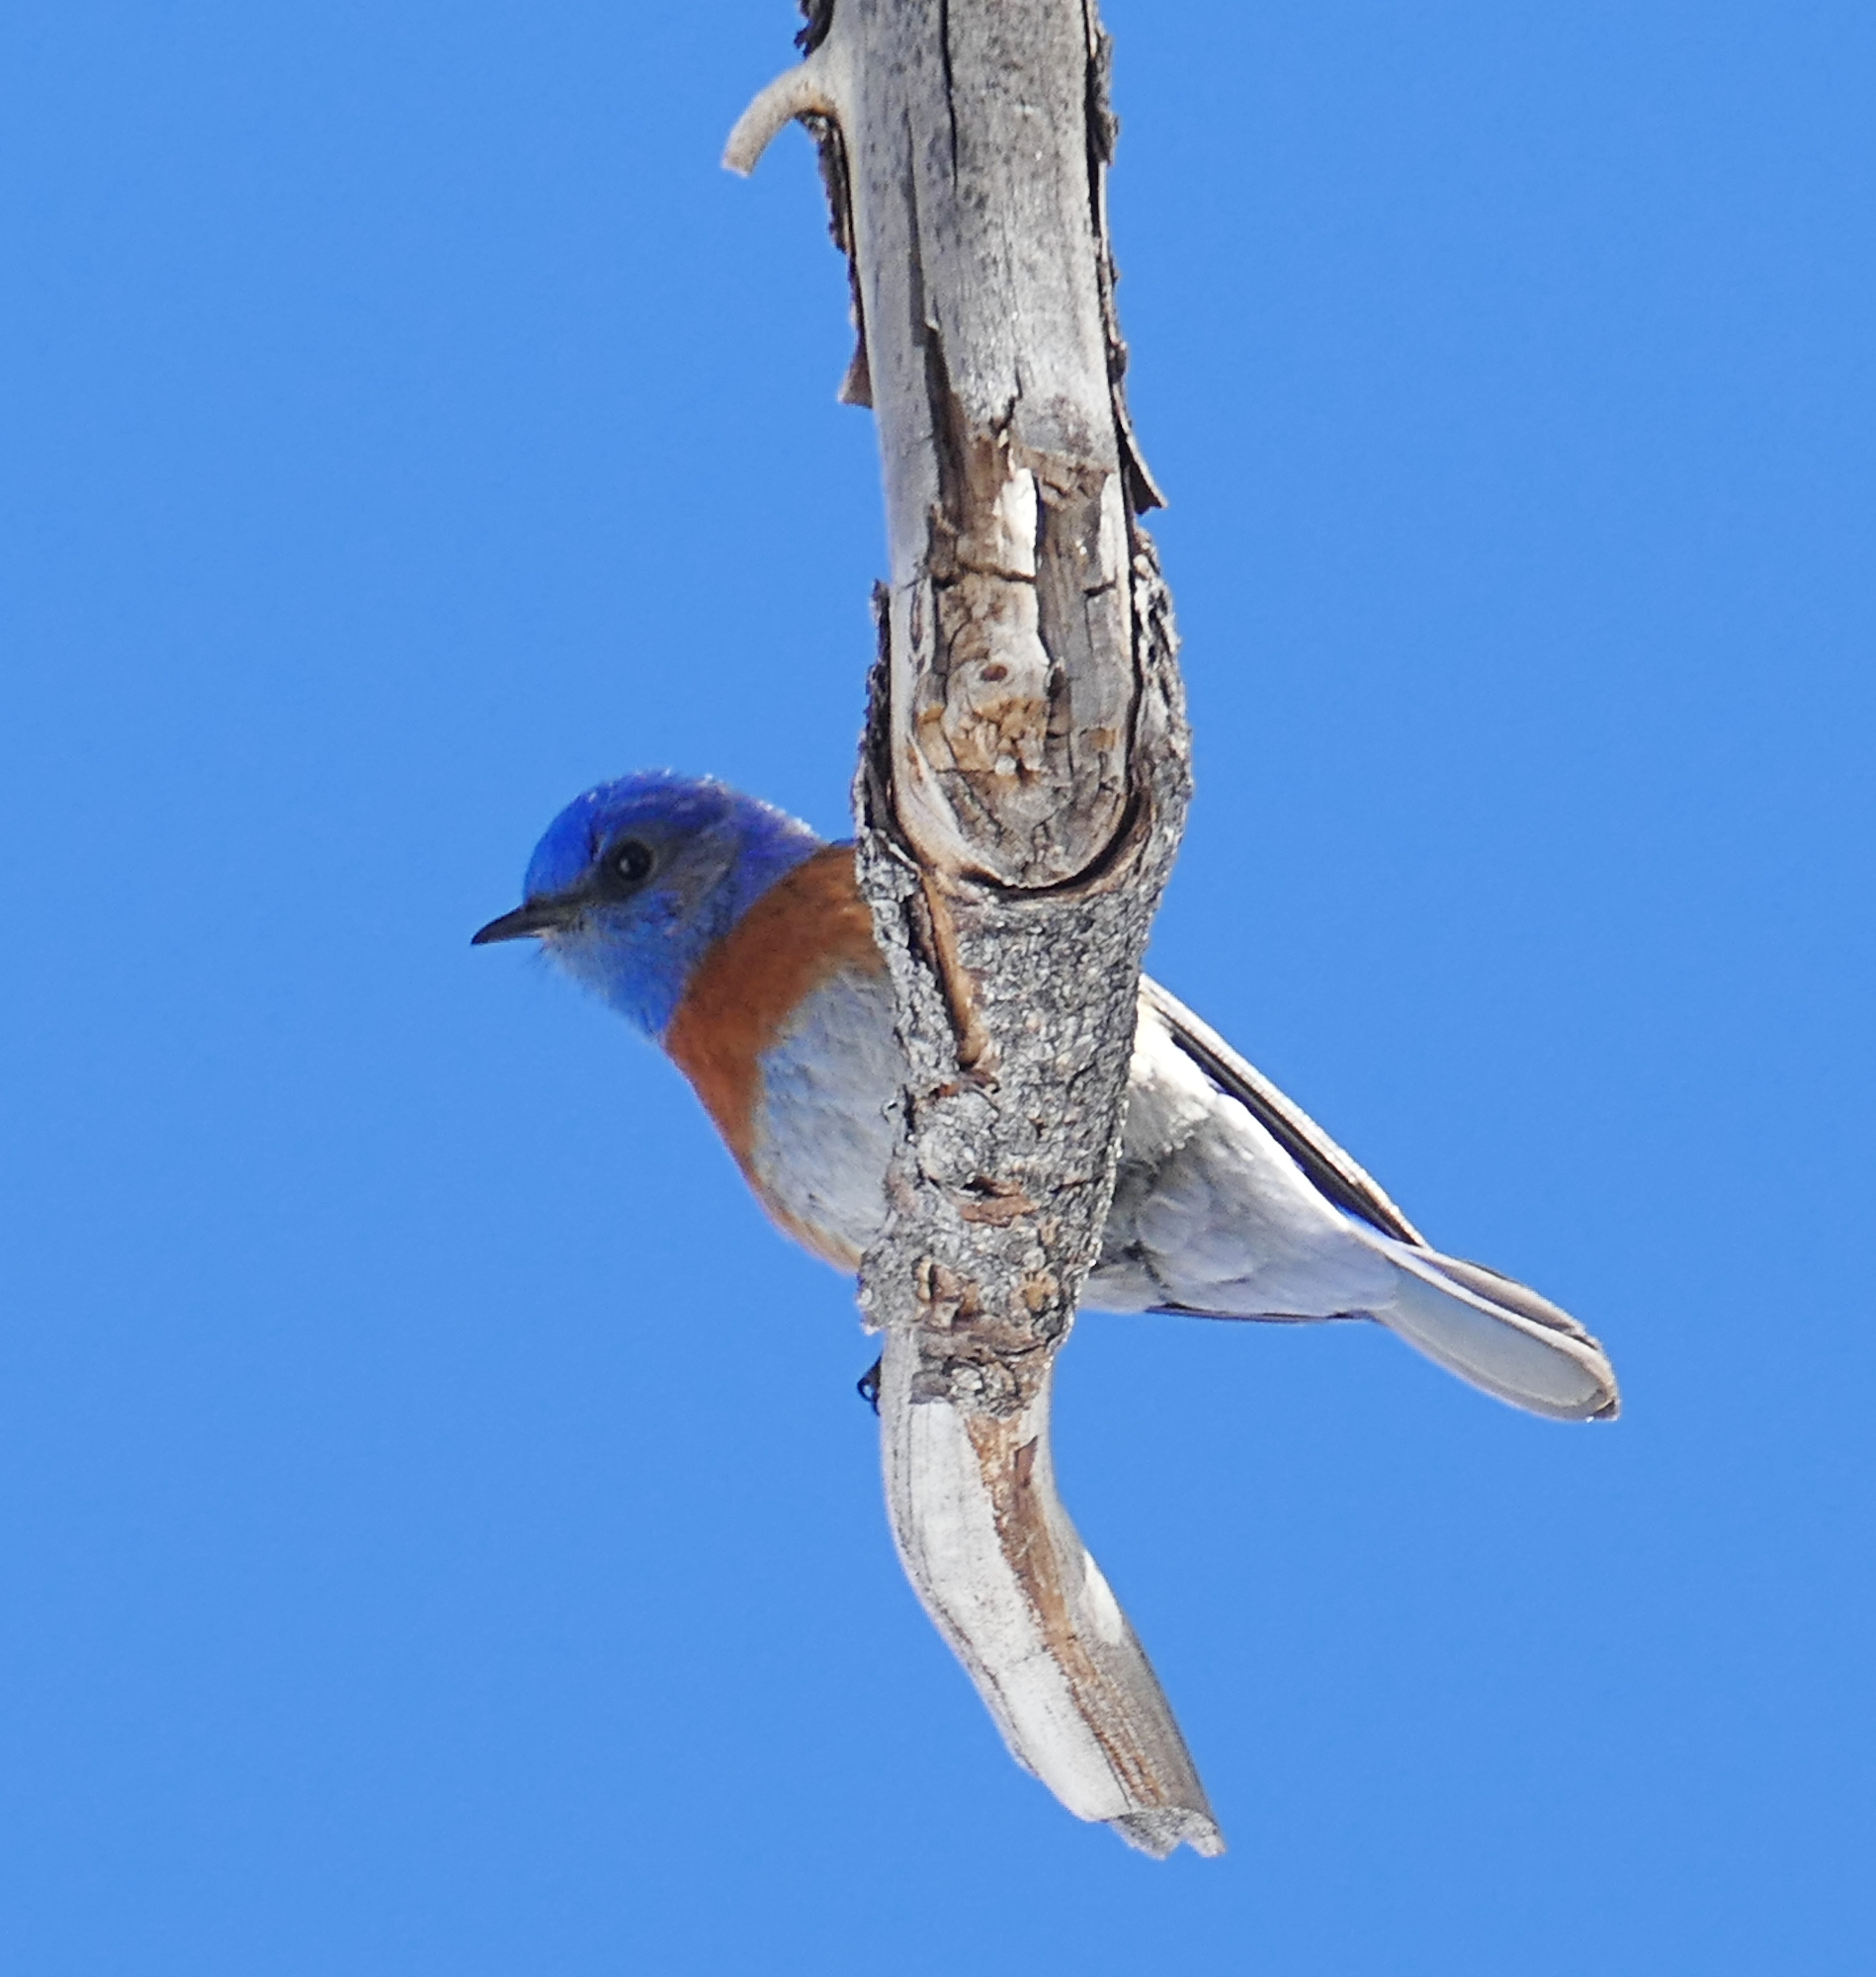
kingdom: Animalia
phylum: Chordata
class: Aves
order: Passeriformes
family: Turdidae
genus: Sialia
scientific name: Sialia mexicana
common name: Western bluebird
